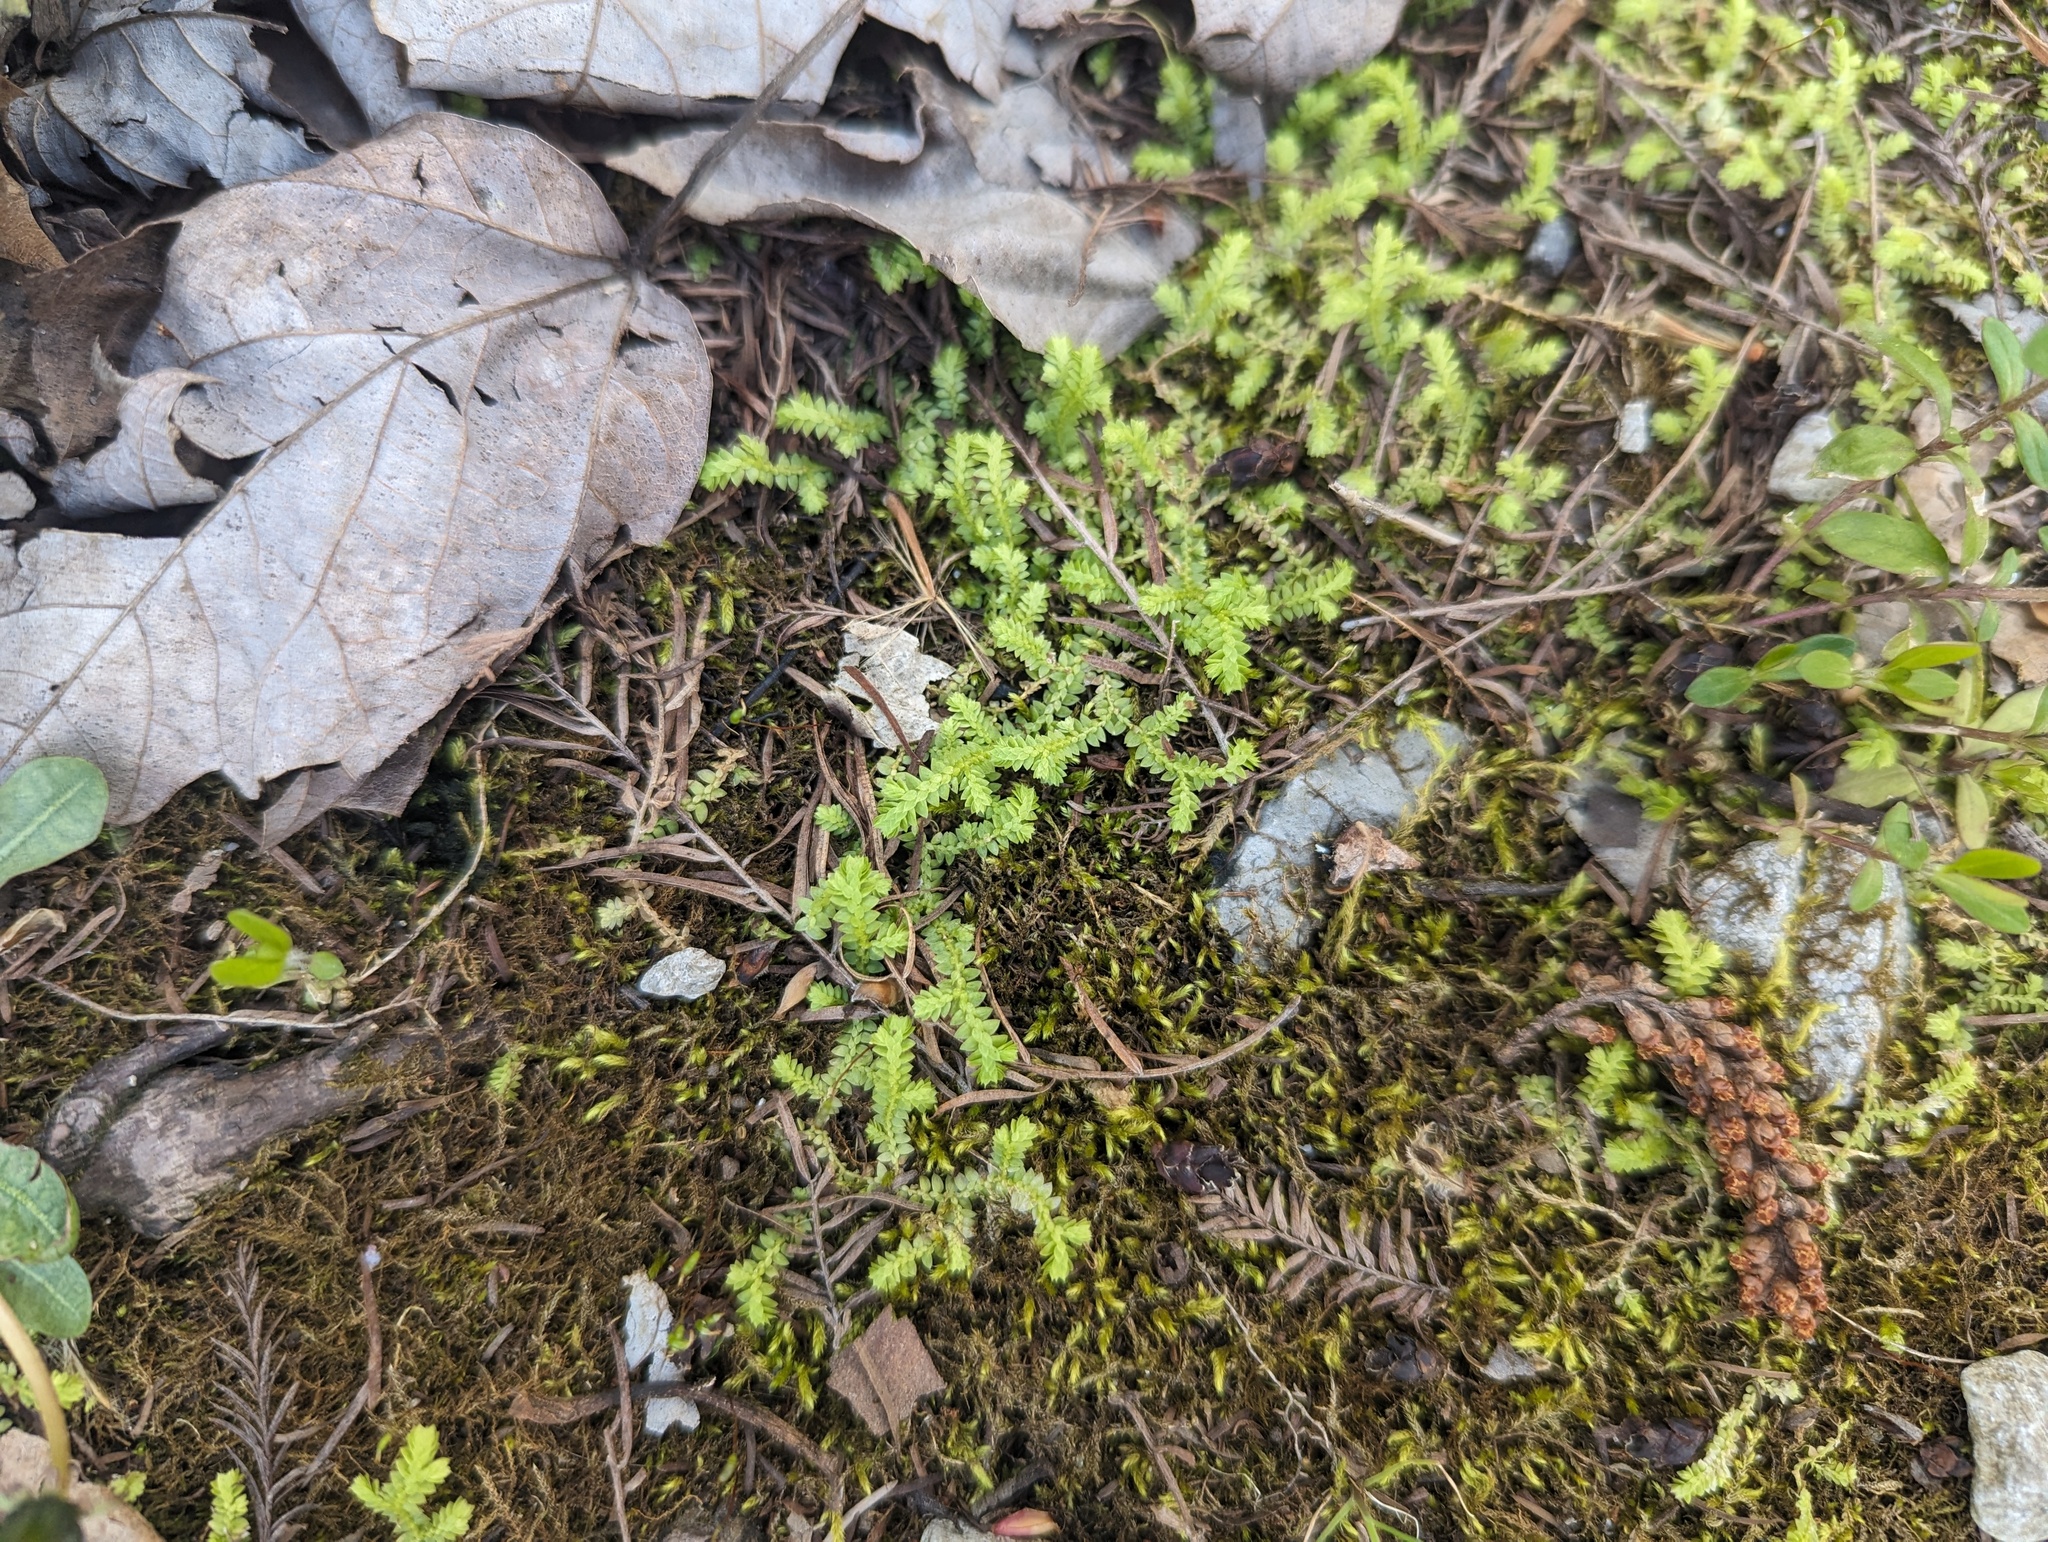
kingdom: Plantae
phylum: Tracheophyta
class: Lycopodiopsida
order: Selaginellales
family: Selaginellaceae
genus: Selaginella
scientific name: Selaginella apoda
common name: Creeping spikemoss
